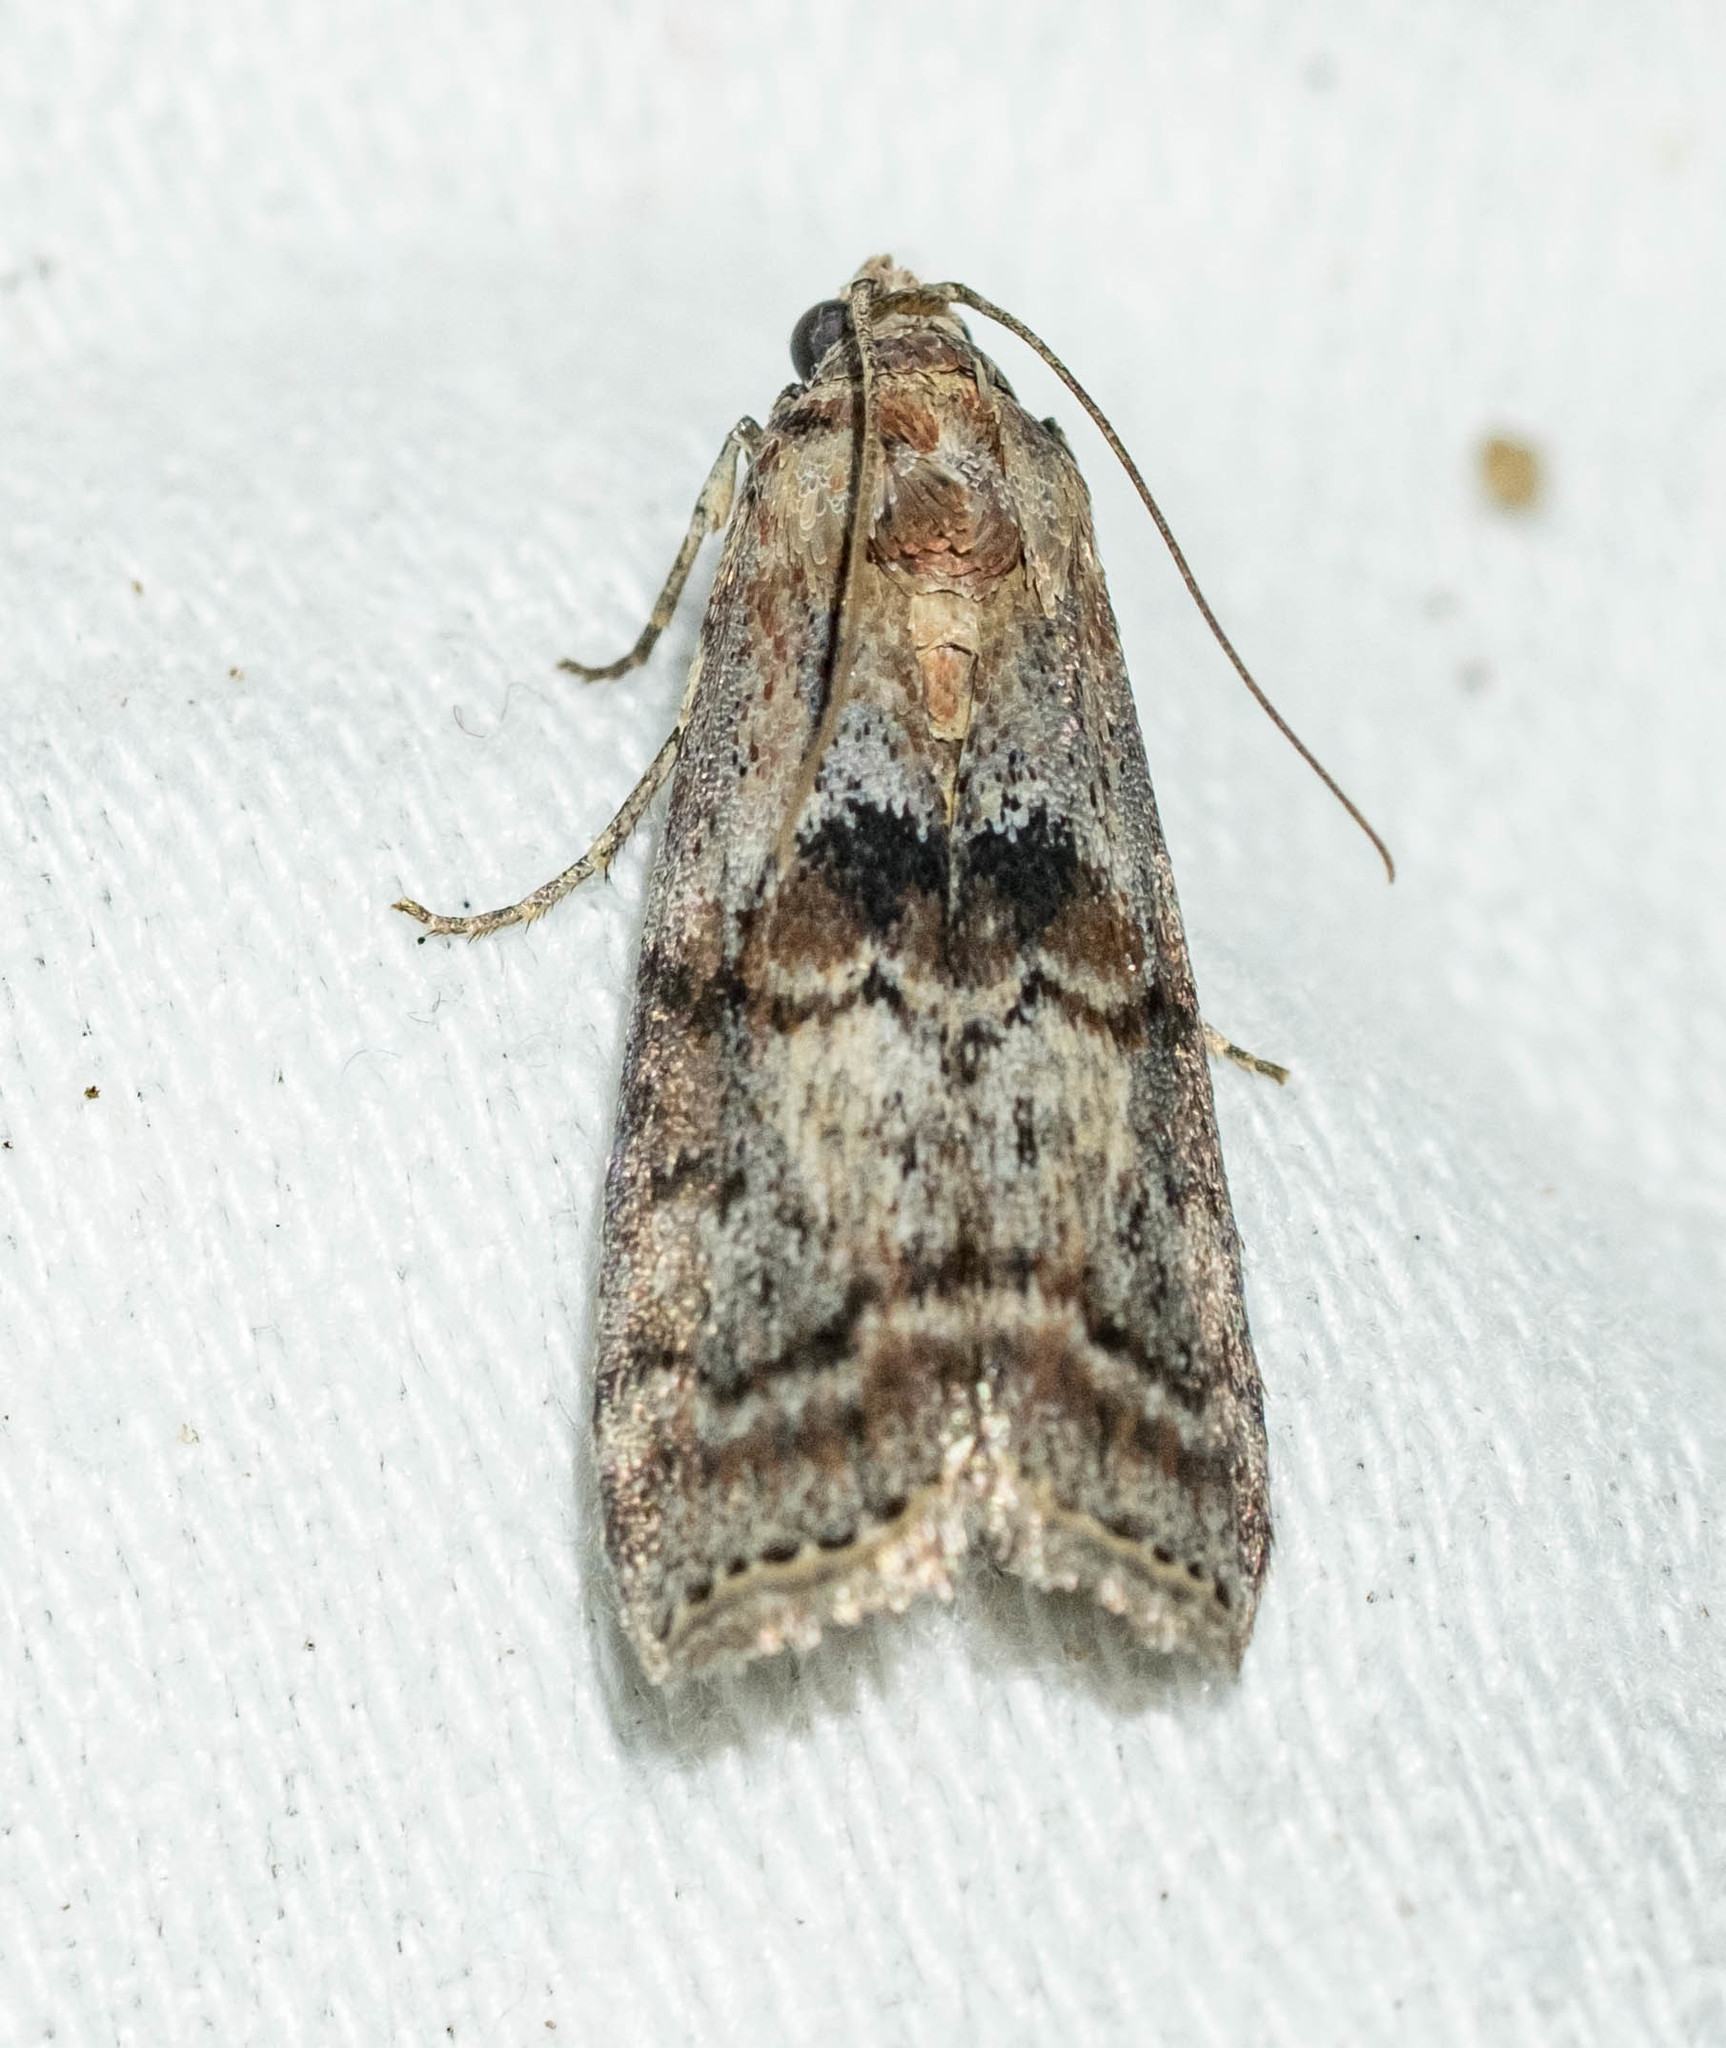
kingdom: Animalia
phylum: Arthropoda
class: Insecta
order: Lepidoptera
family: Pyralidae
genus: Phycita
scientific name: Phycita roborella
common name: Dotted oak knot-horn
